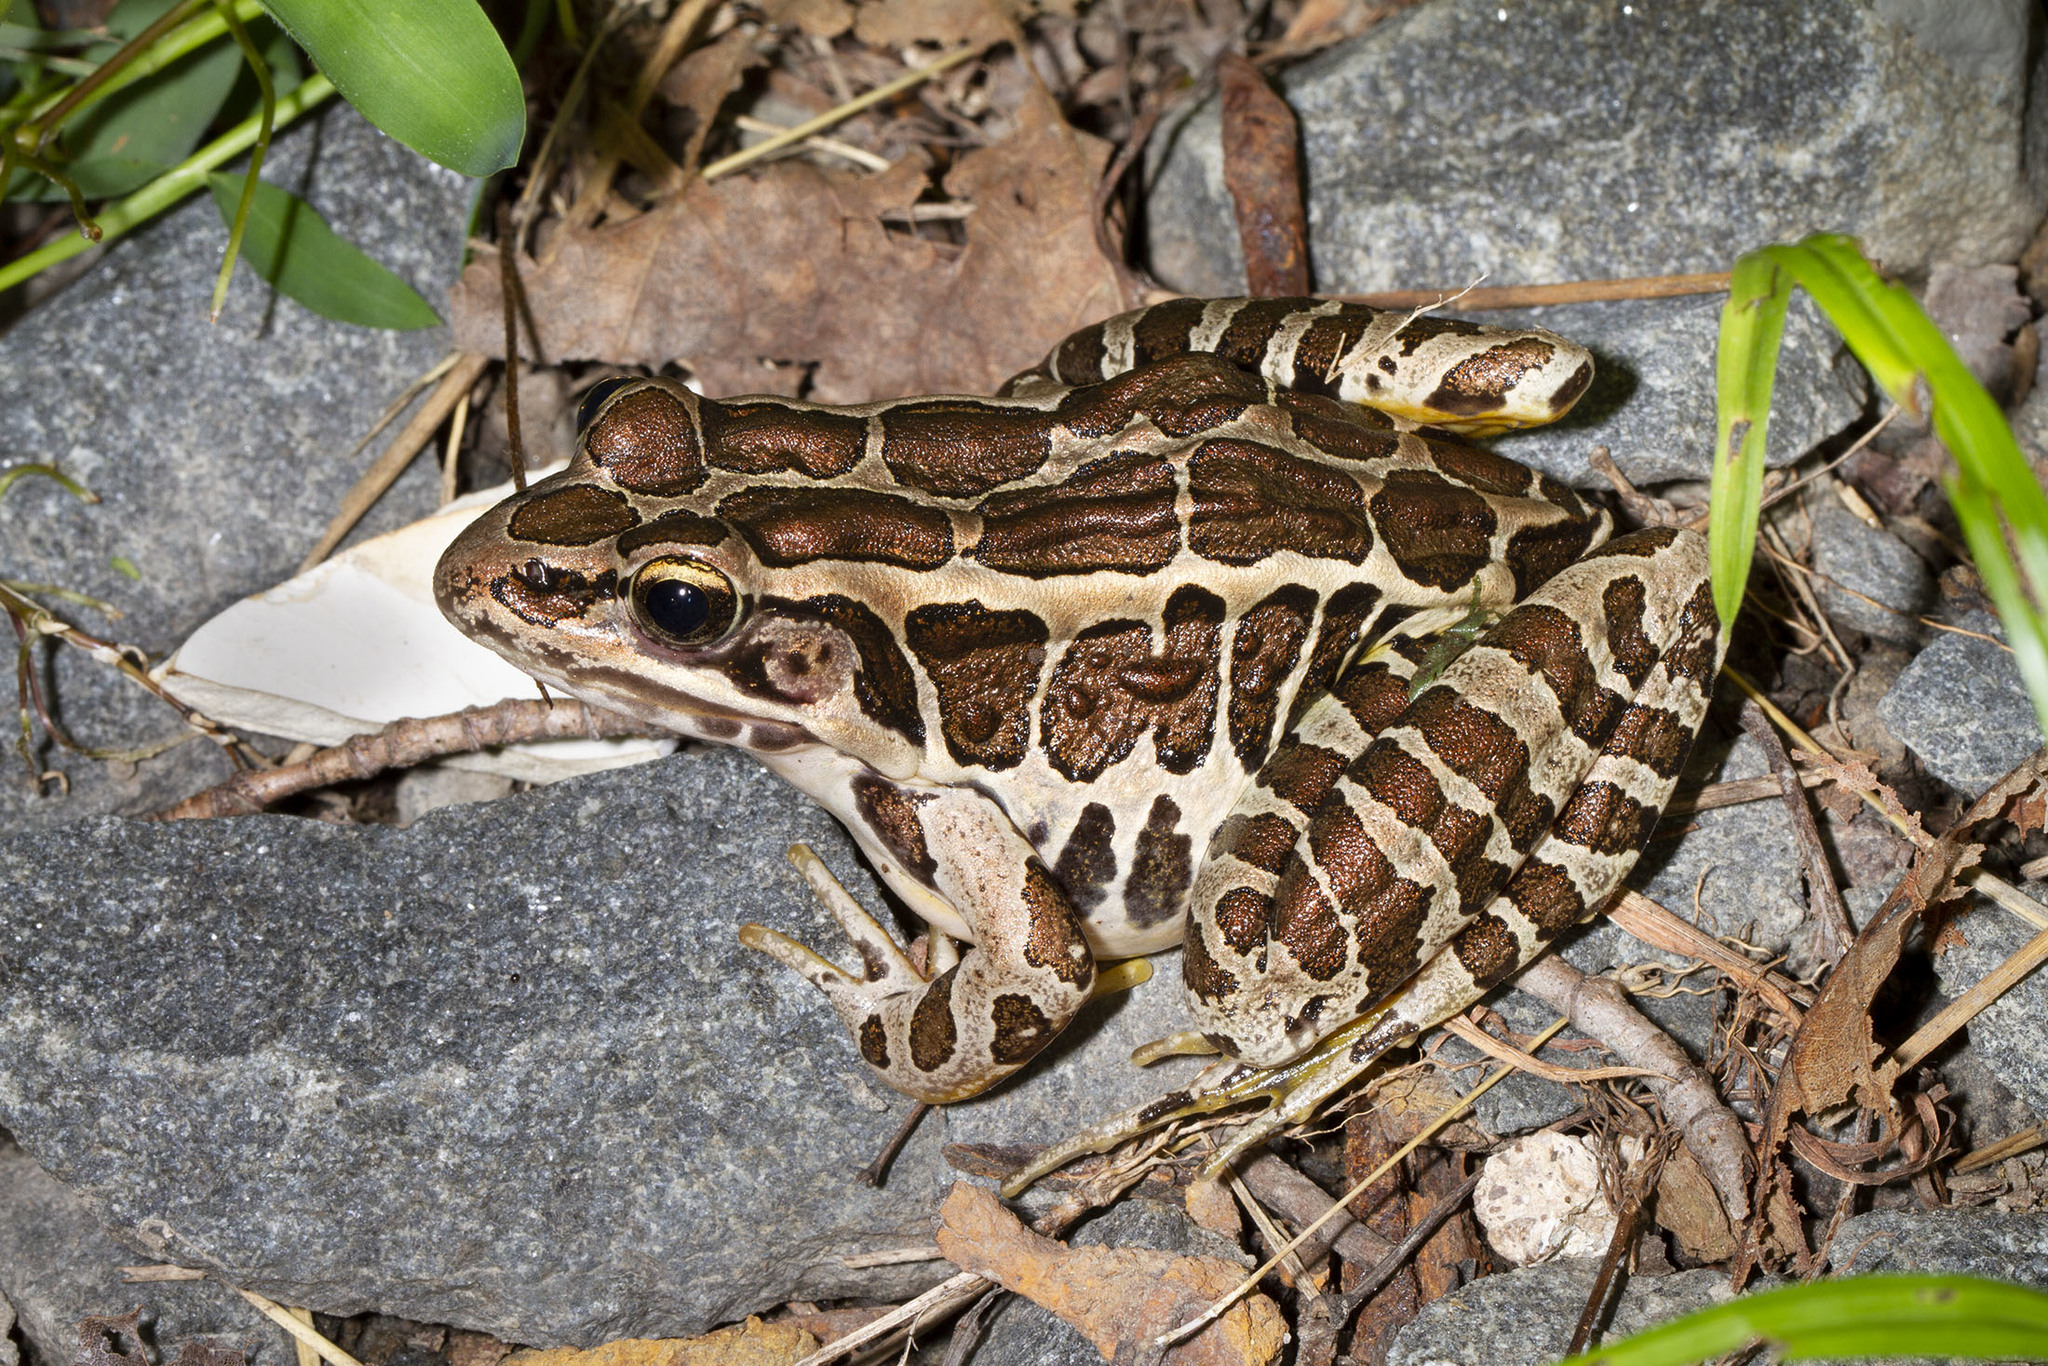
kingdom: Animalia
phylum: Chordata
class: Amphibia
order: Anura
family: Ranidae
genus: Lithobates
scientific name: Lithobates palustris
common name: Pickerel frog
